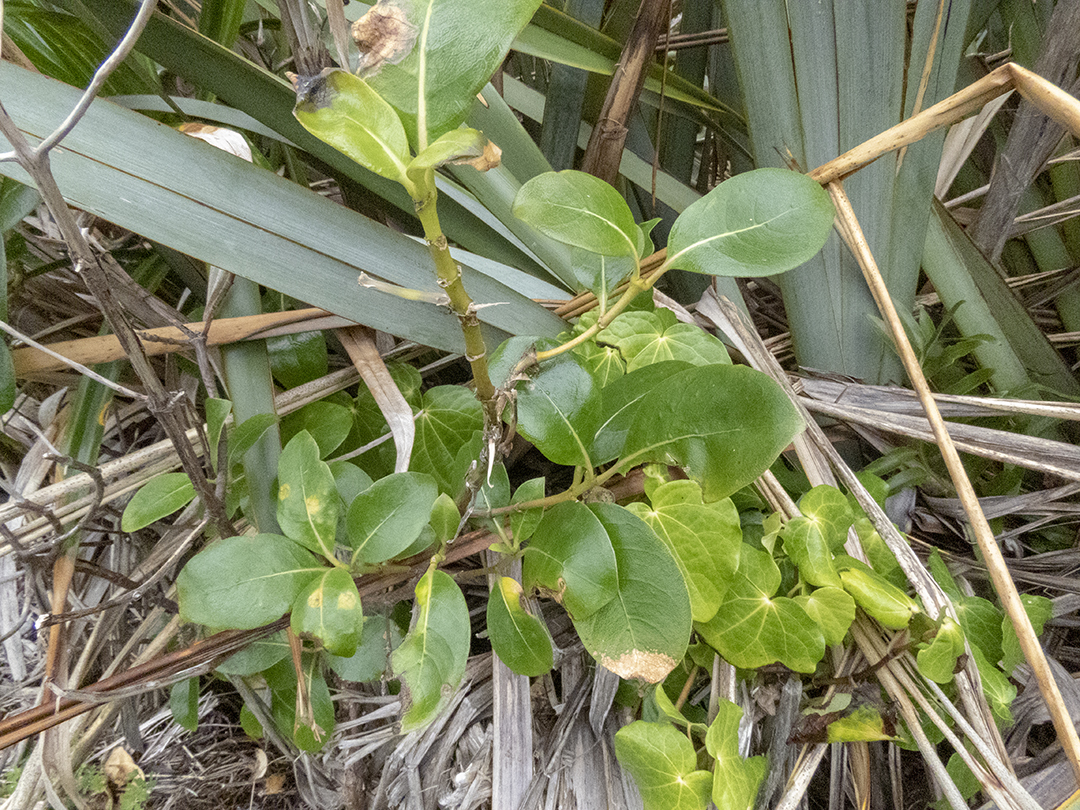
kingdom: Plantae
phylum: Tracheophyta
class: Magnoliopsida
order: Gentianales
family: Rubiaceae
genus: Coprosma
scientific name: Coprosma lucida
